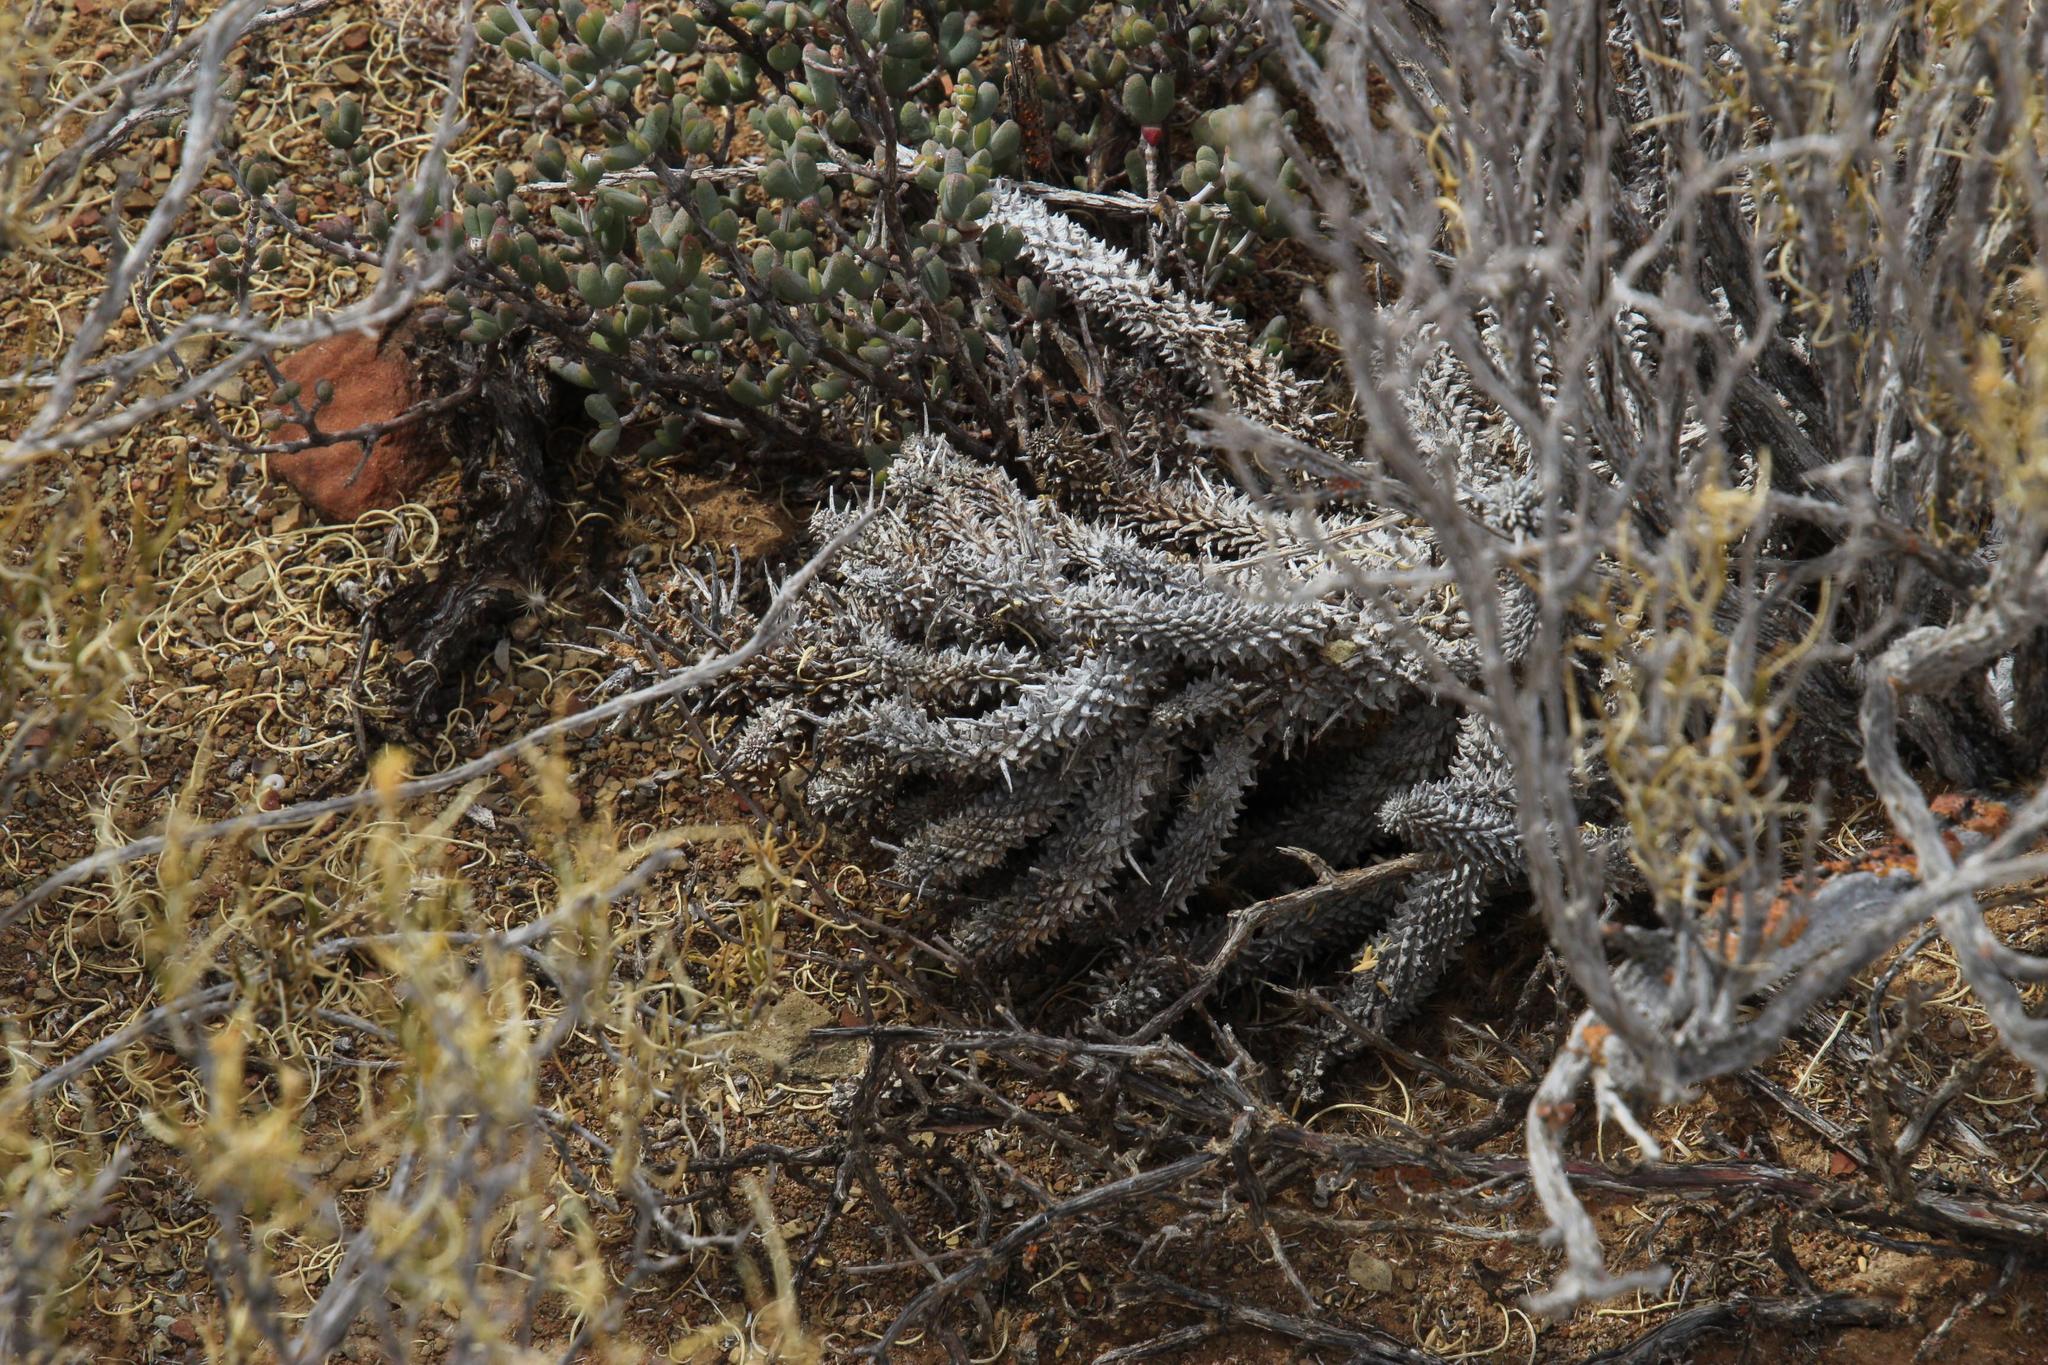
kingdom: Plantae
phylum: Tracheophyta
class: Magnoliopsida
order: Malpighiales
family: Euphorbiaceae
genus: Euphorbia
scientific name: Euphorbia multiceps
